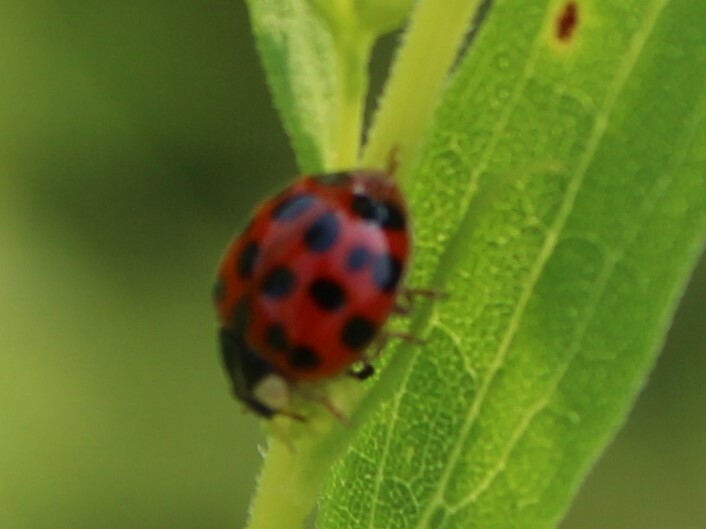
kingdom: Animalia
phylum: Arthropoda
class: Insecta
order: Coleoptera
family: Coccinellidae
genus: Harmonia
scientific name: Harmonia axyridis
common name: Harlequin ladybird
